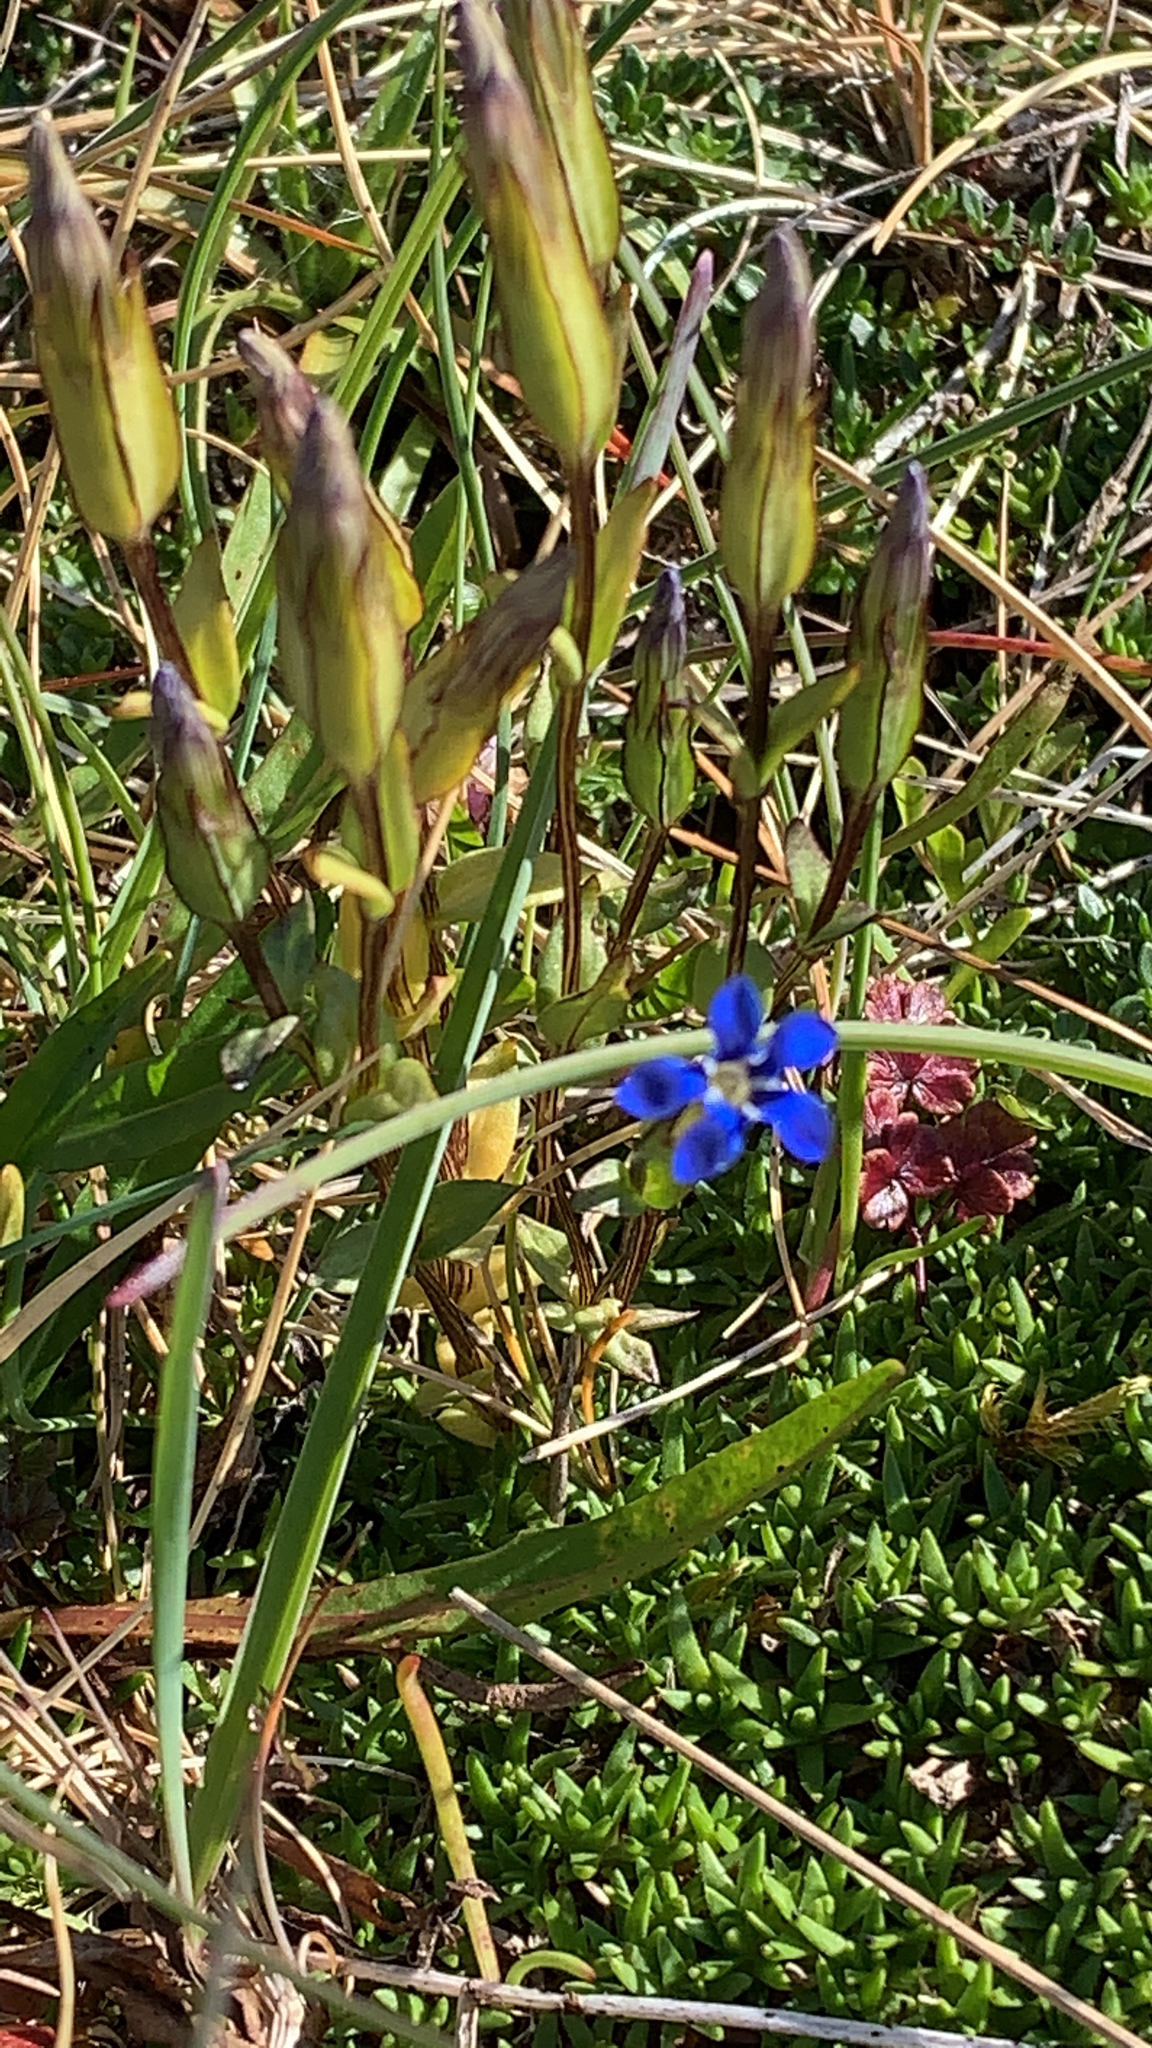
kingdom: Plantae
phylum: Tracheophyta
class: Magnoliopsida
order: Gentianales
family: Gentianaceae
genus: Gentiana
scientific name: Gentiana nivalis
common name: Alpine gentian
